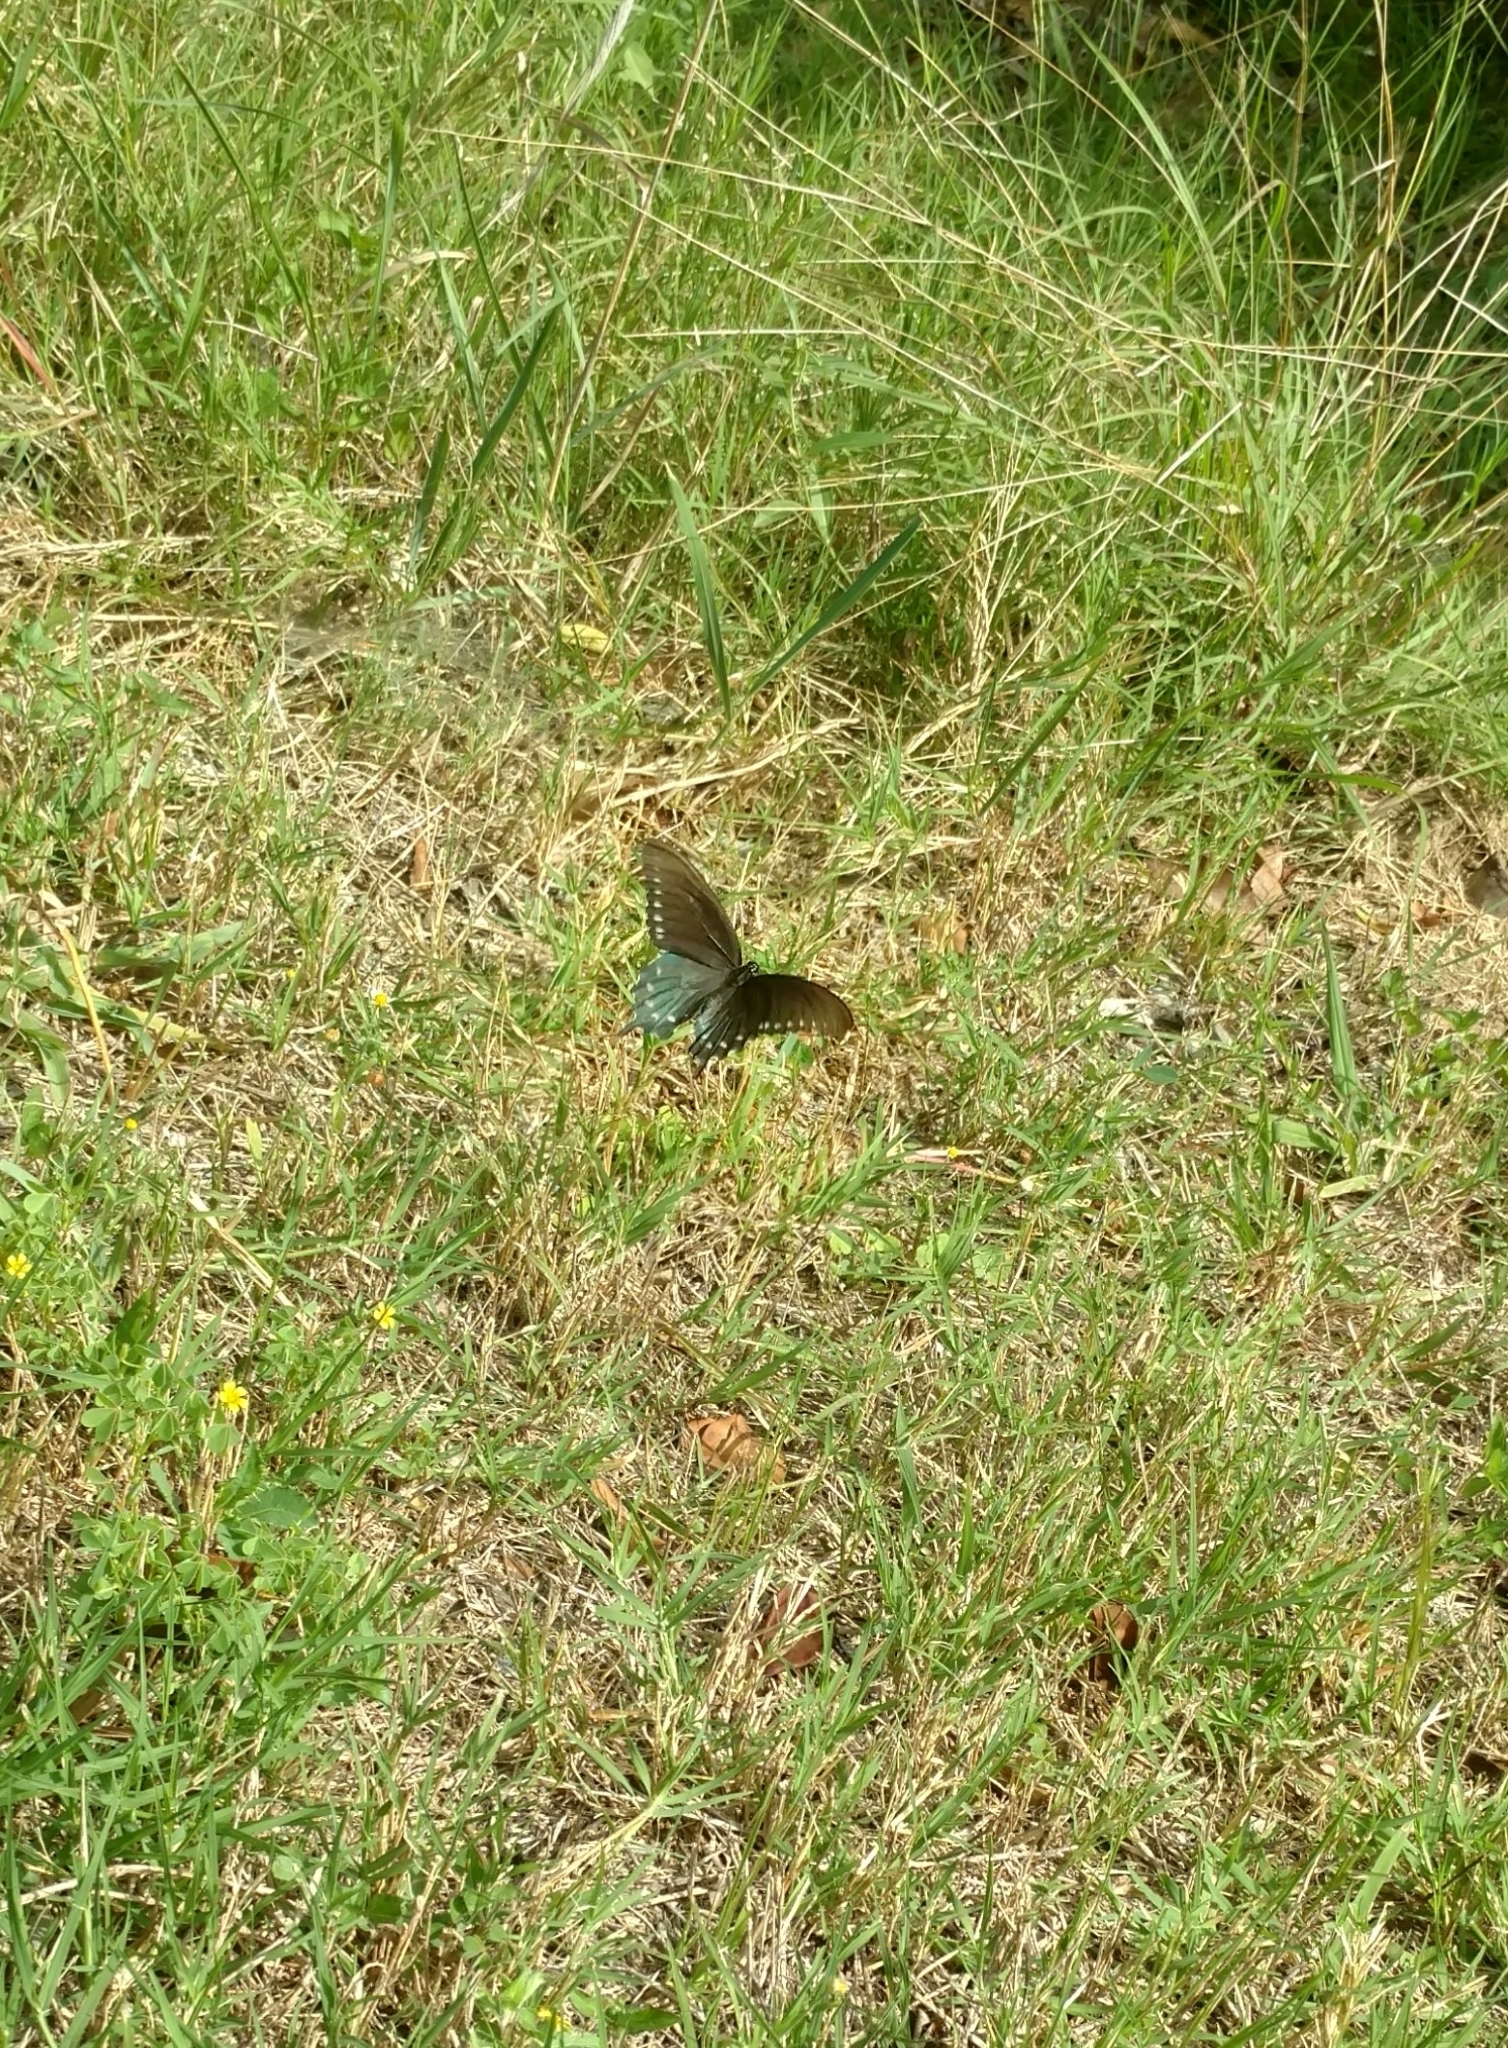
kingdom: Animalia
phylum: Arthropoda
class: Insecta
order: Lepidoptera
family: Papilionidae
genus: Battus
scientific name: Battus philenor
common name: Pipevine swallowtail
